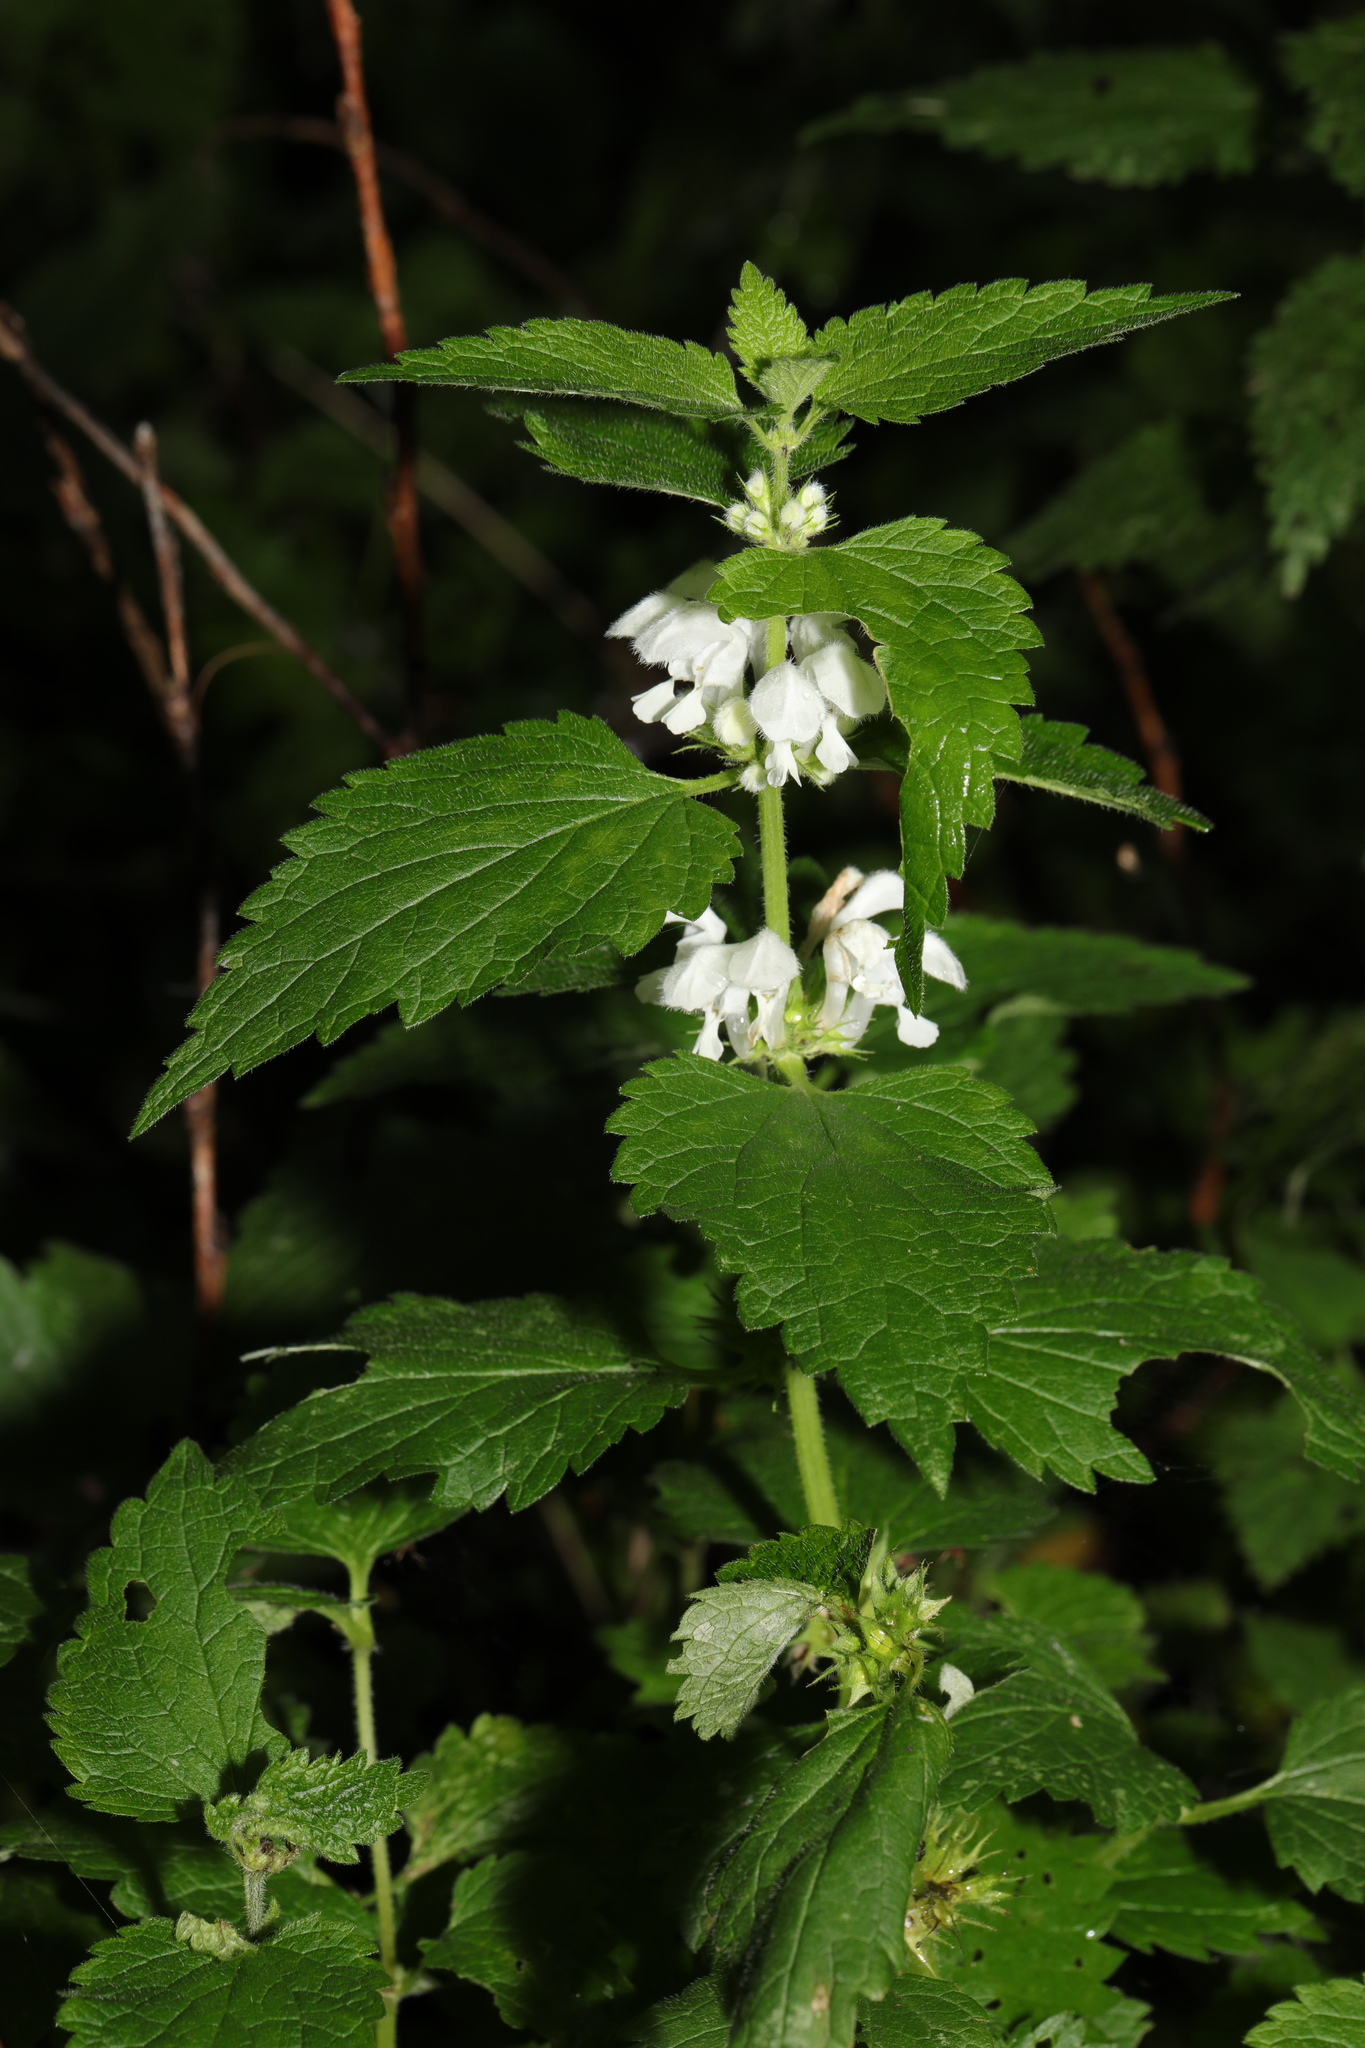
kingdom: Plantae
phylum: Tracheophyta
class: Magnoliopsida
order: Lamiales
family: Lamiaceae
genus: Lamium
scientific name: Lamium album
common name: White dead-nettle
